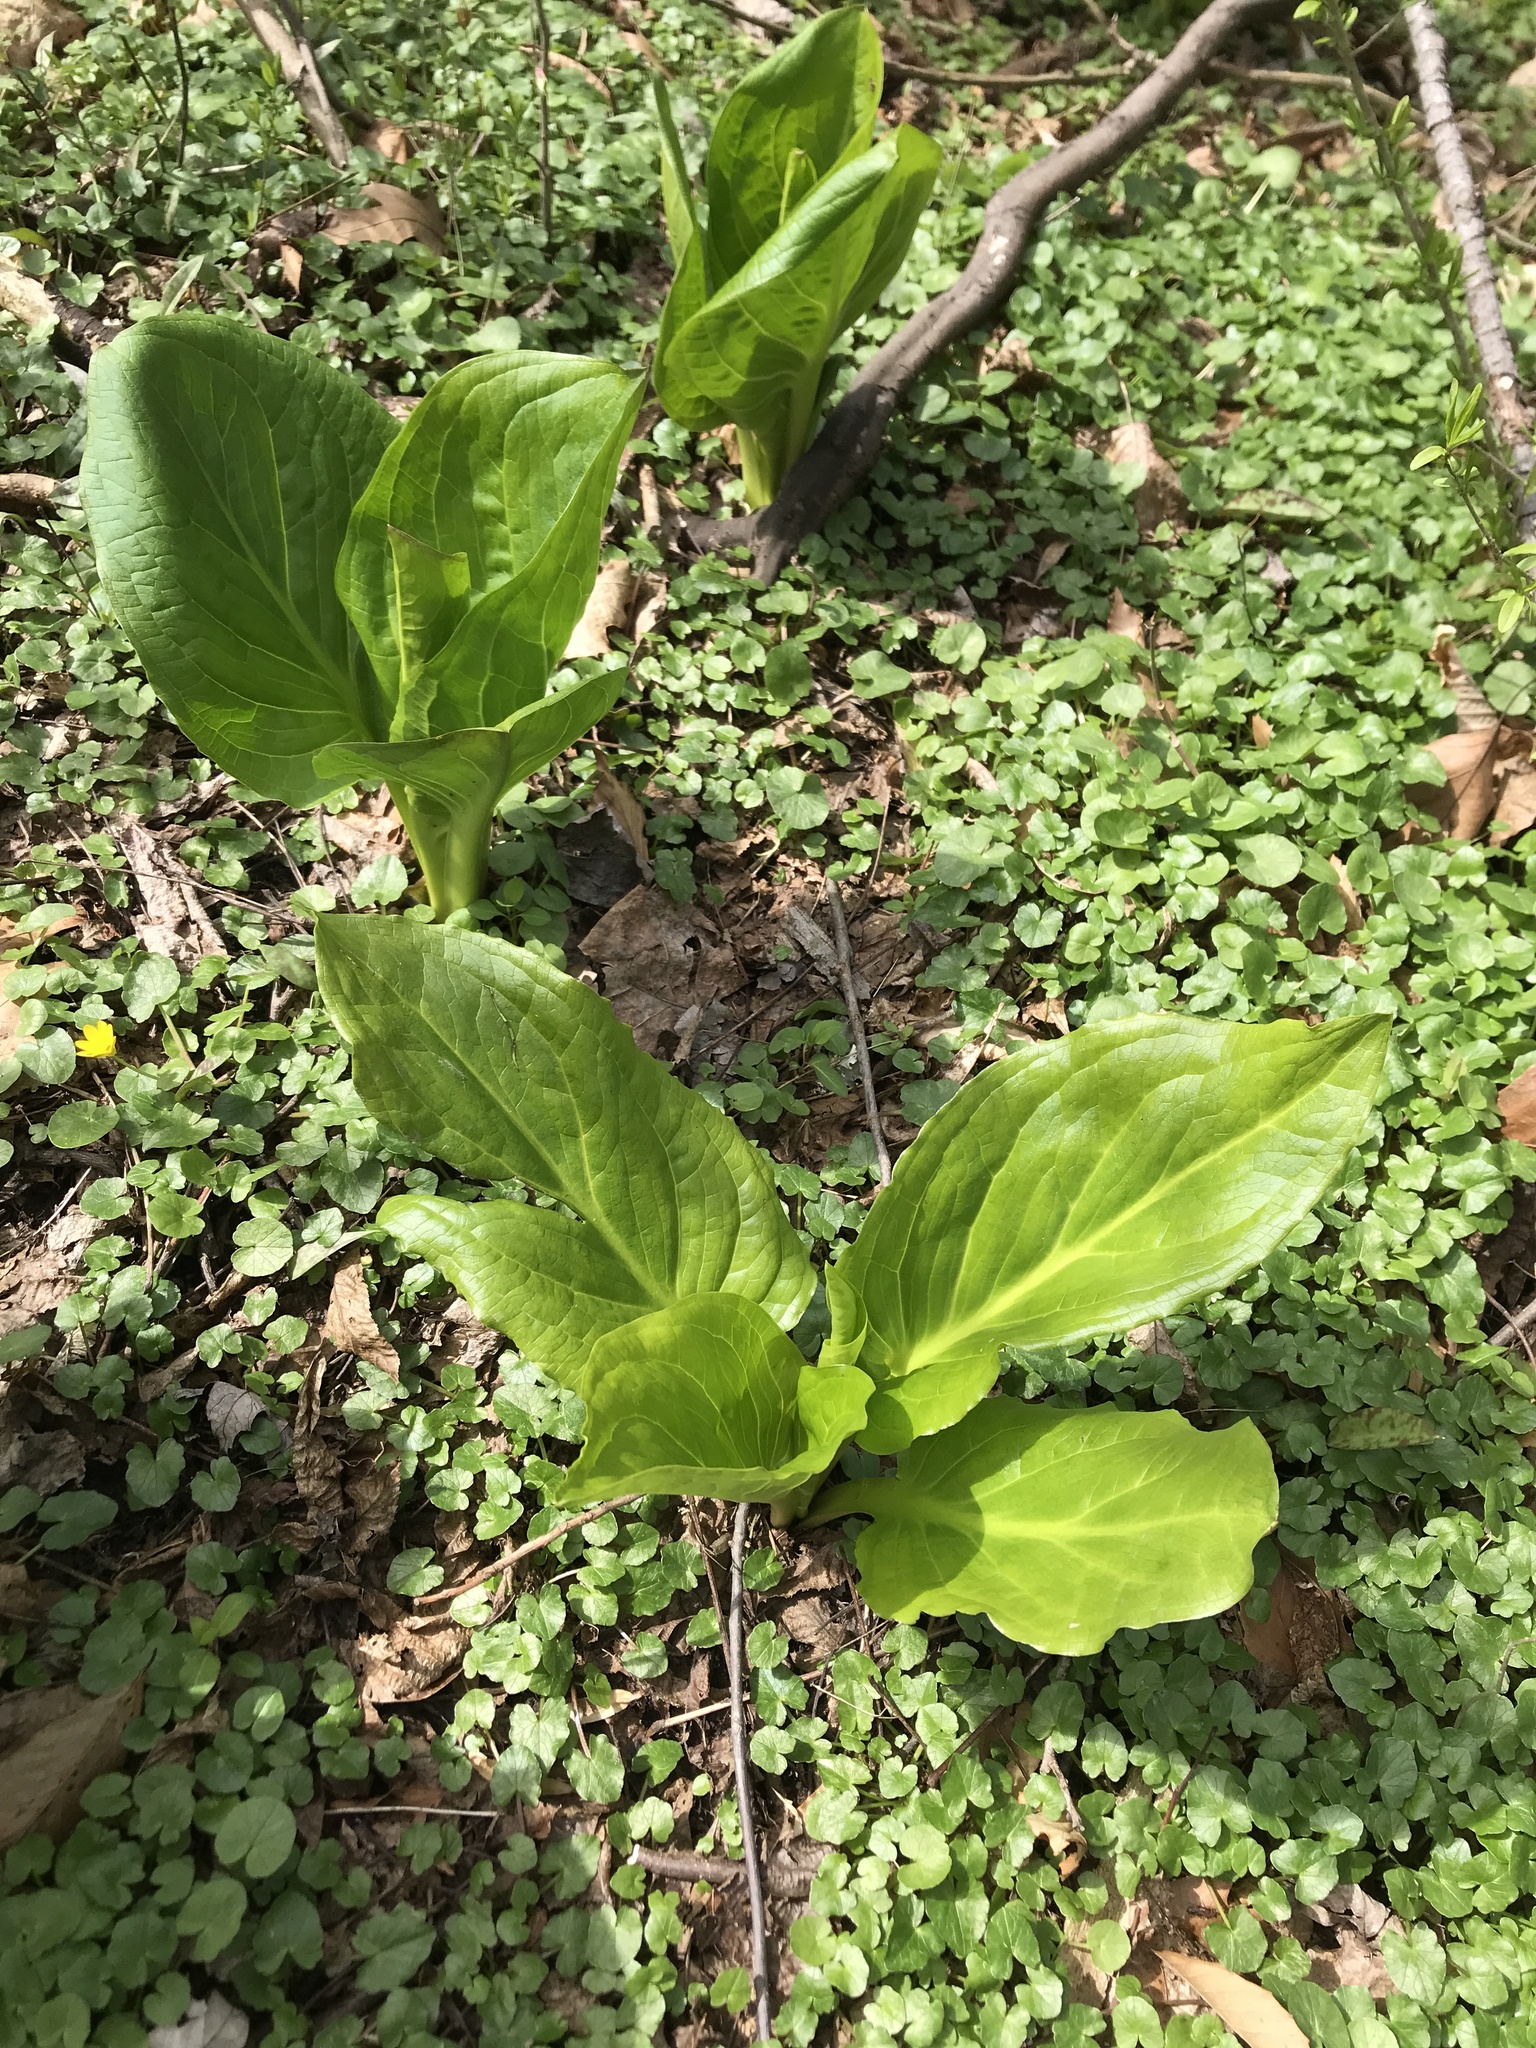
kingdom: Plantae
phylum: Tracheophyta
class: Liliopsida
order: Alismatales
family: Araceae
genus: Symplocarpus
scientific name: Symplocarpus foetidus
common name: Eastern skunk cabbage
